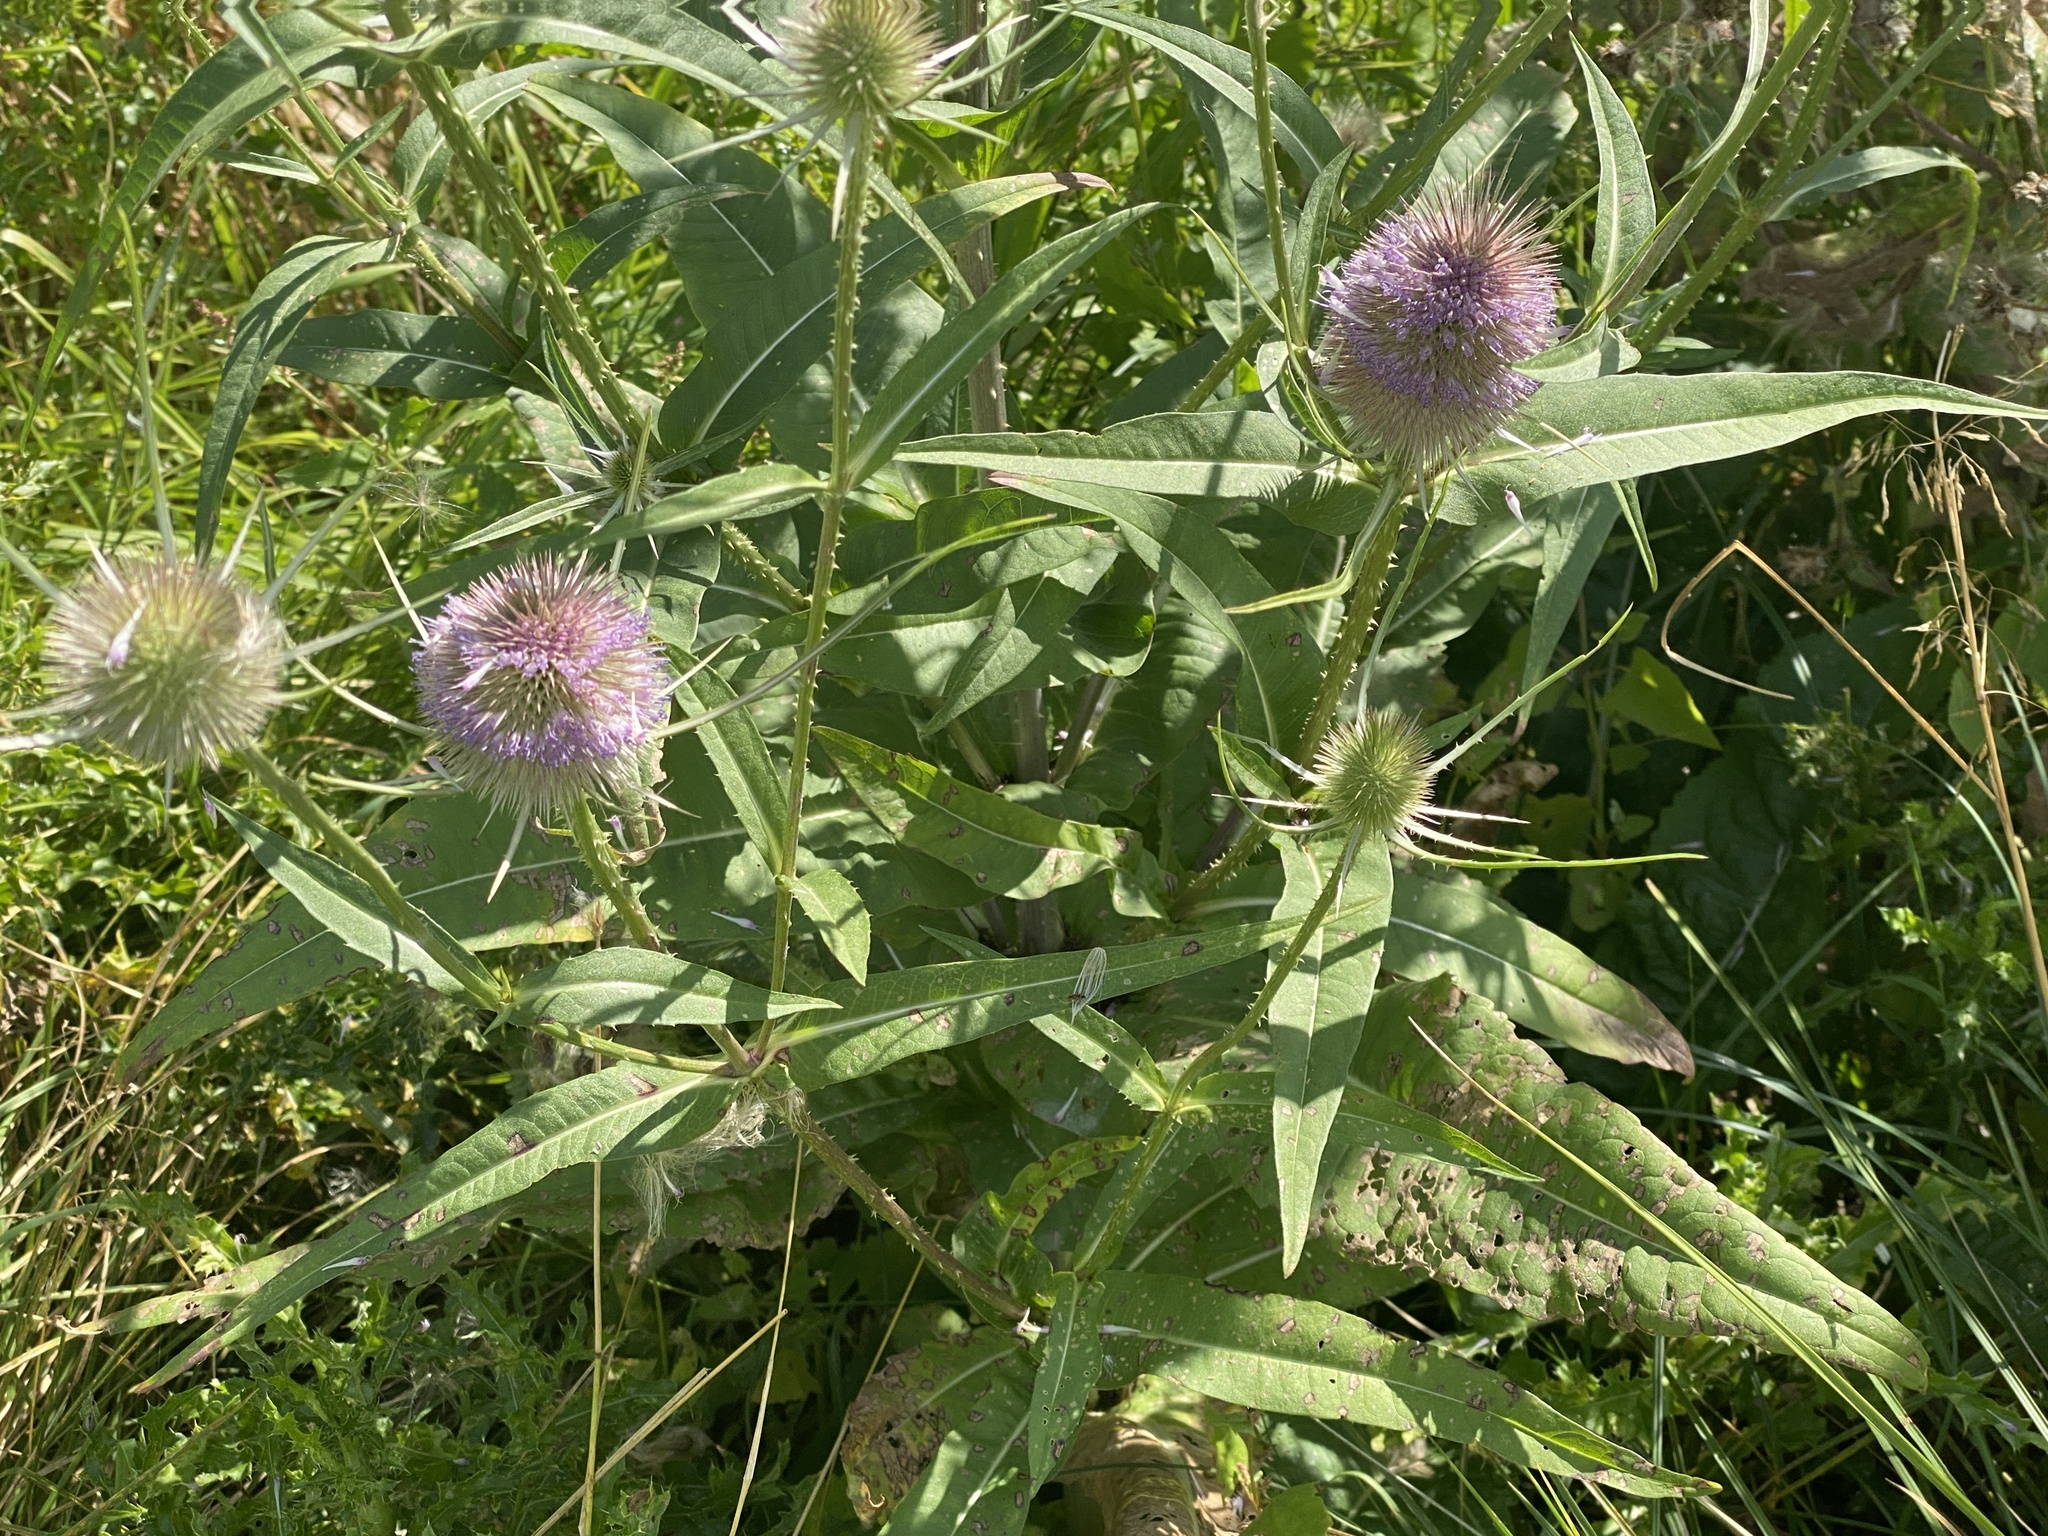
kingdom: Plantae
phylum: Tracheophyta
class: Magnoliopsida
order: Dipsacales
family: Caprifoliaceae
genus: Dipsacus
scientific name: Dipsacus fullonum
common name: Teasel
